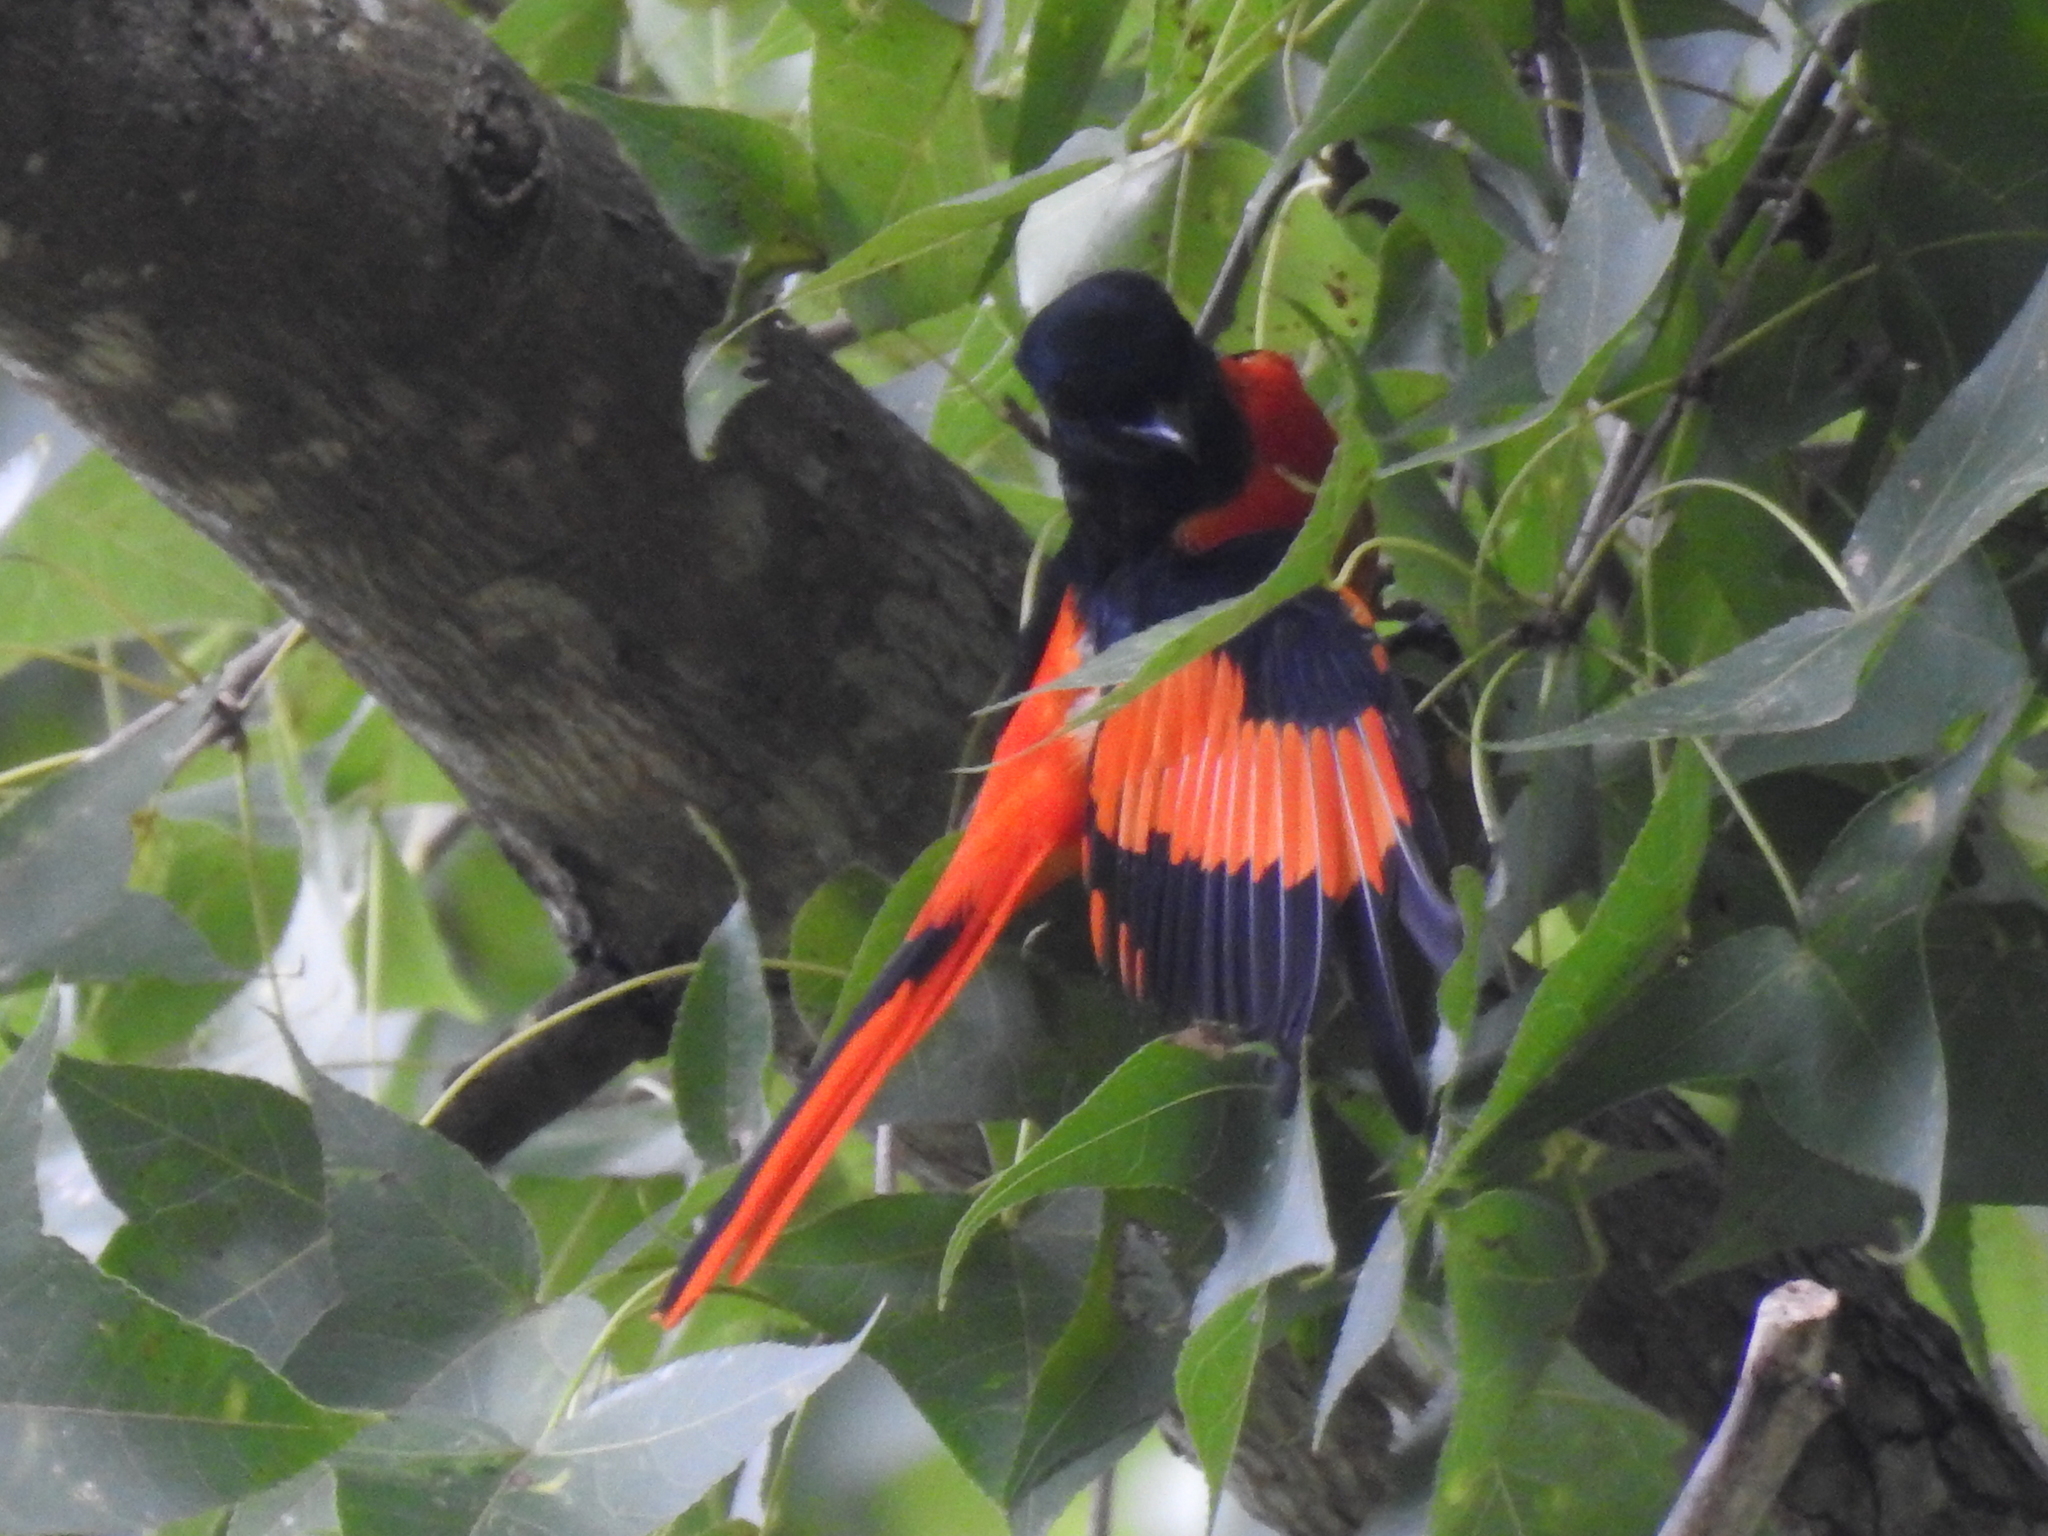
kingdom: Animalia
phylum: Chordata
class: Aves
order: Passeriformes
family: Campephagidae
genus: Pericrocotus
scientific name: Pericrocotus speciosus
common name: Scarlet minivet
